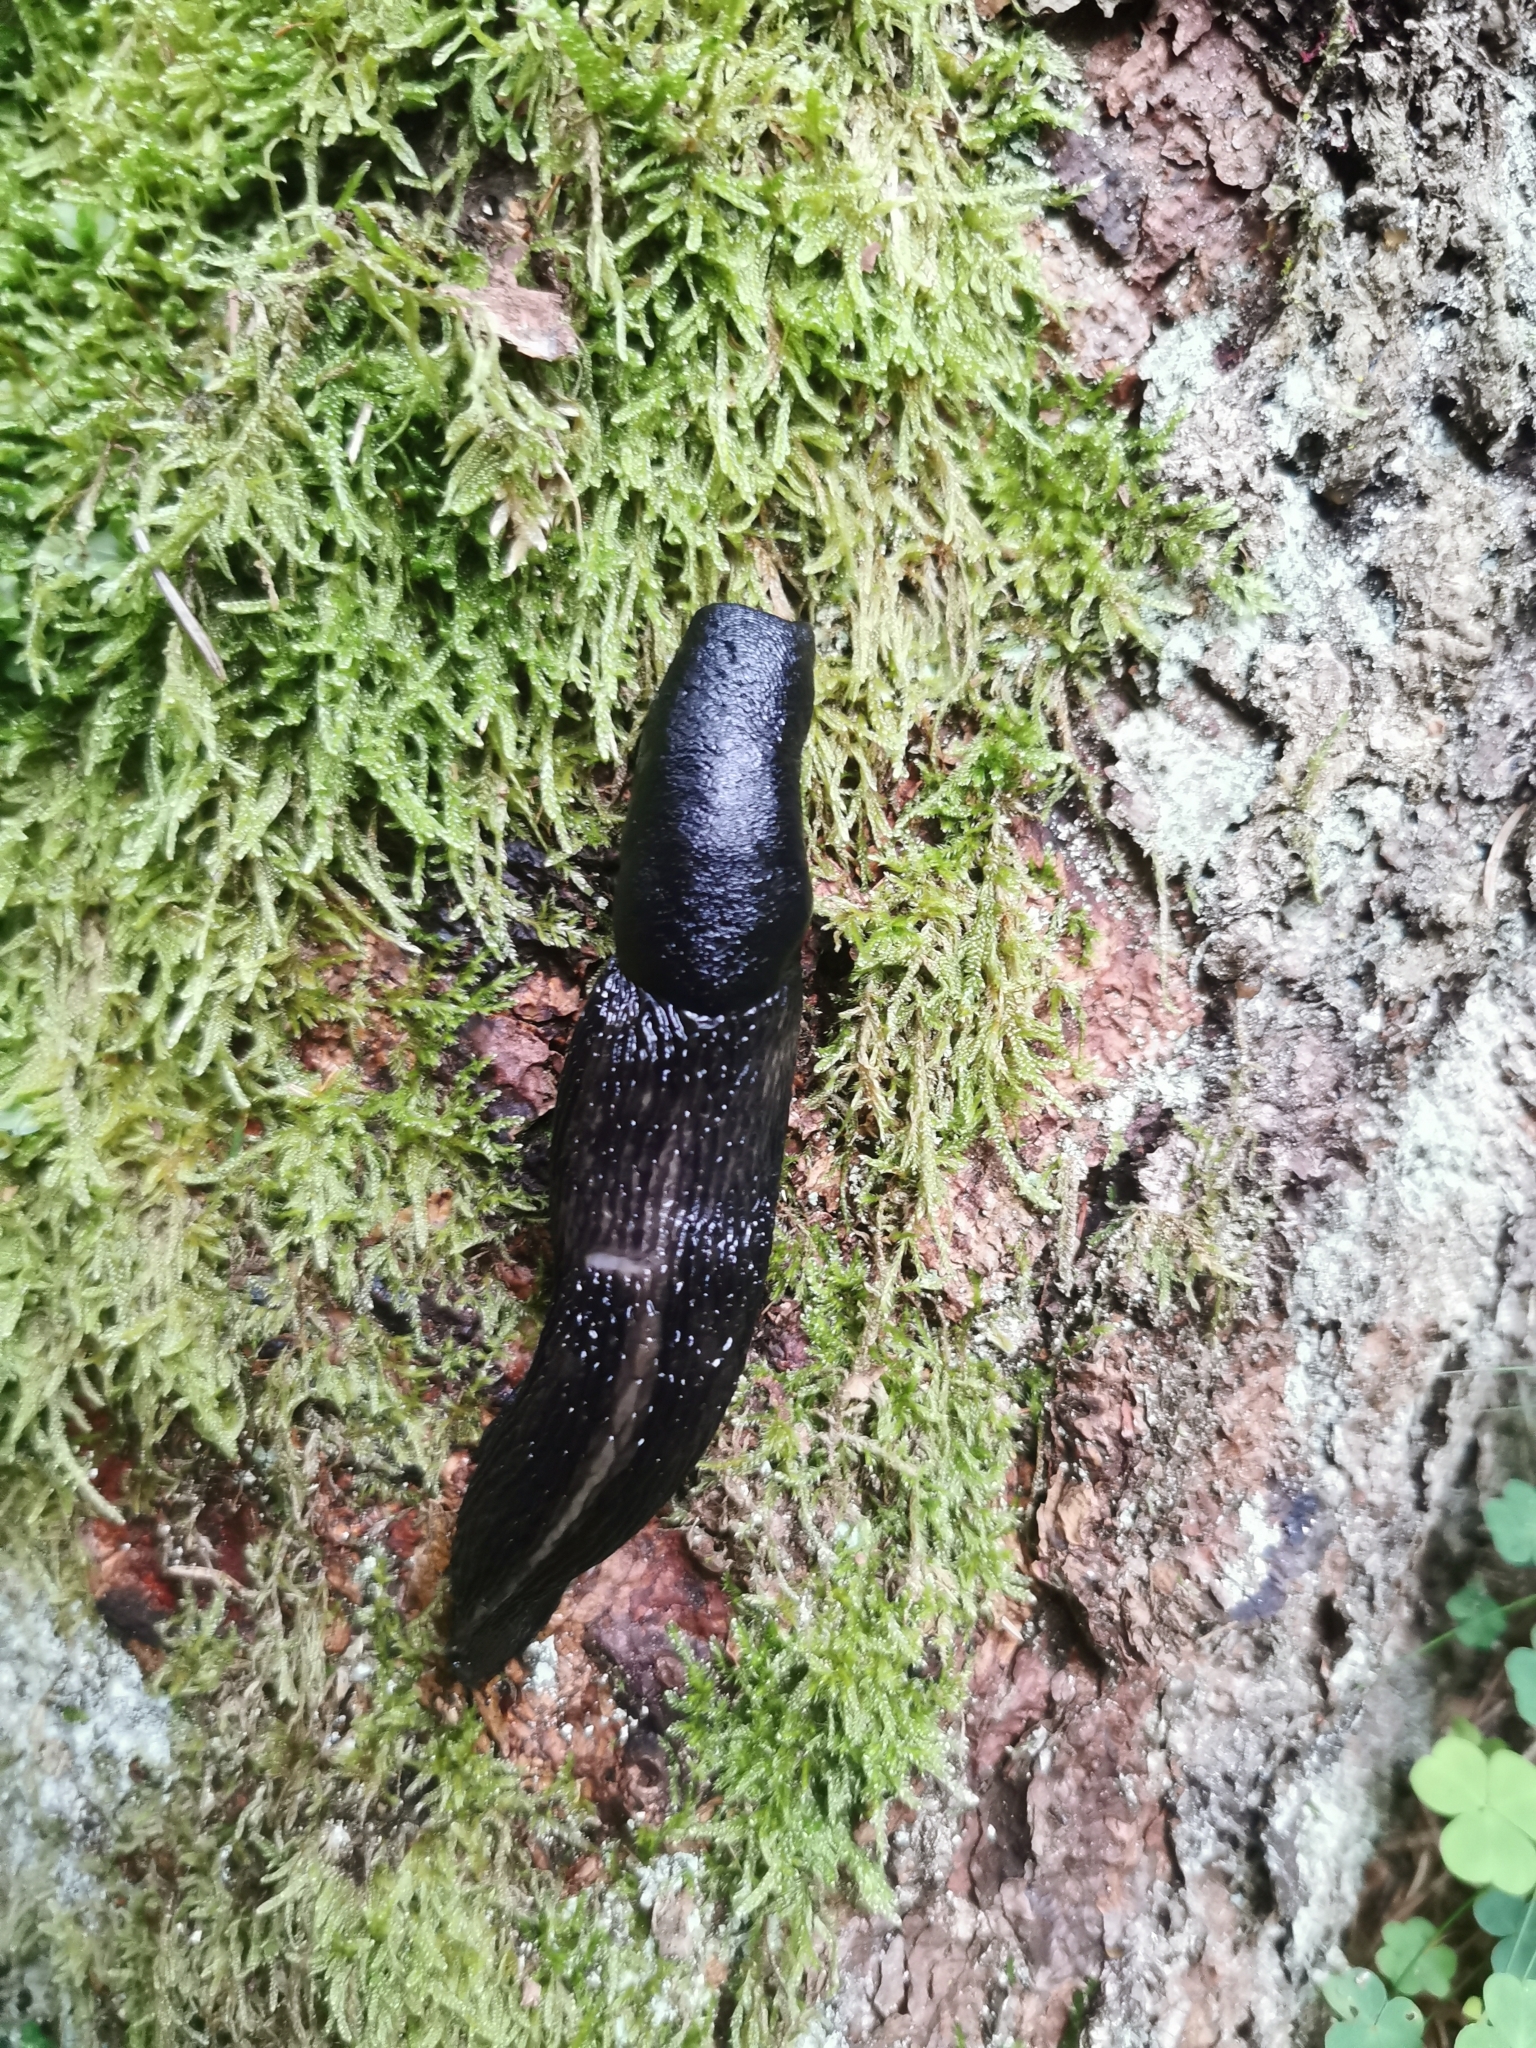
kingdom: Animalia
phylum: Mollusca
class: Gastropoda
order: Stylommatophora
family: Limacidae
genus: Limax
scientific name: Limax cinereoniger
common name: Ash-black slug
